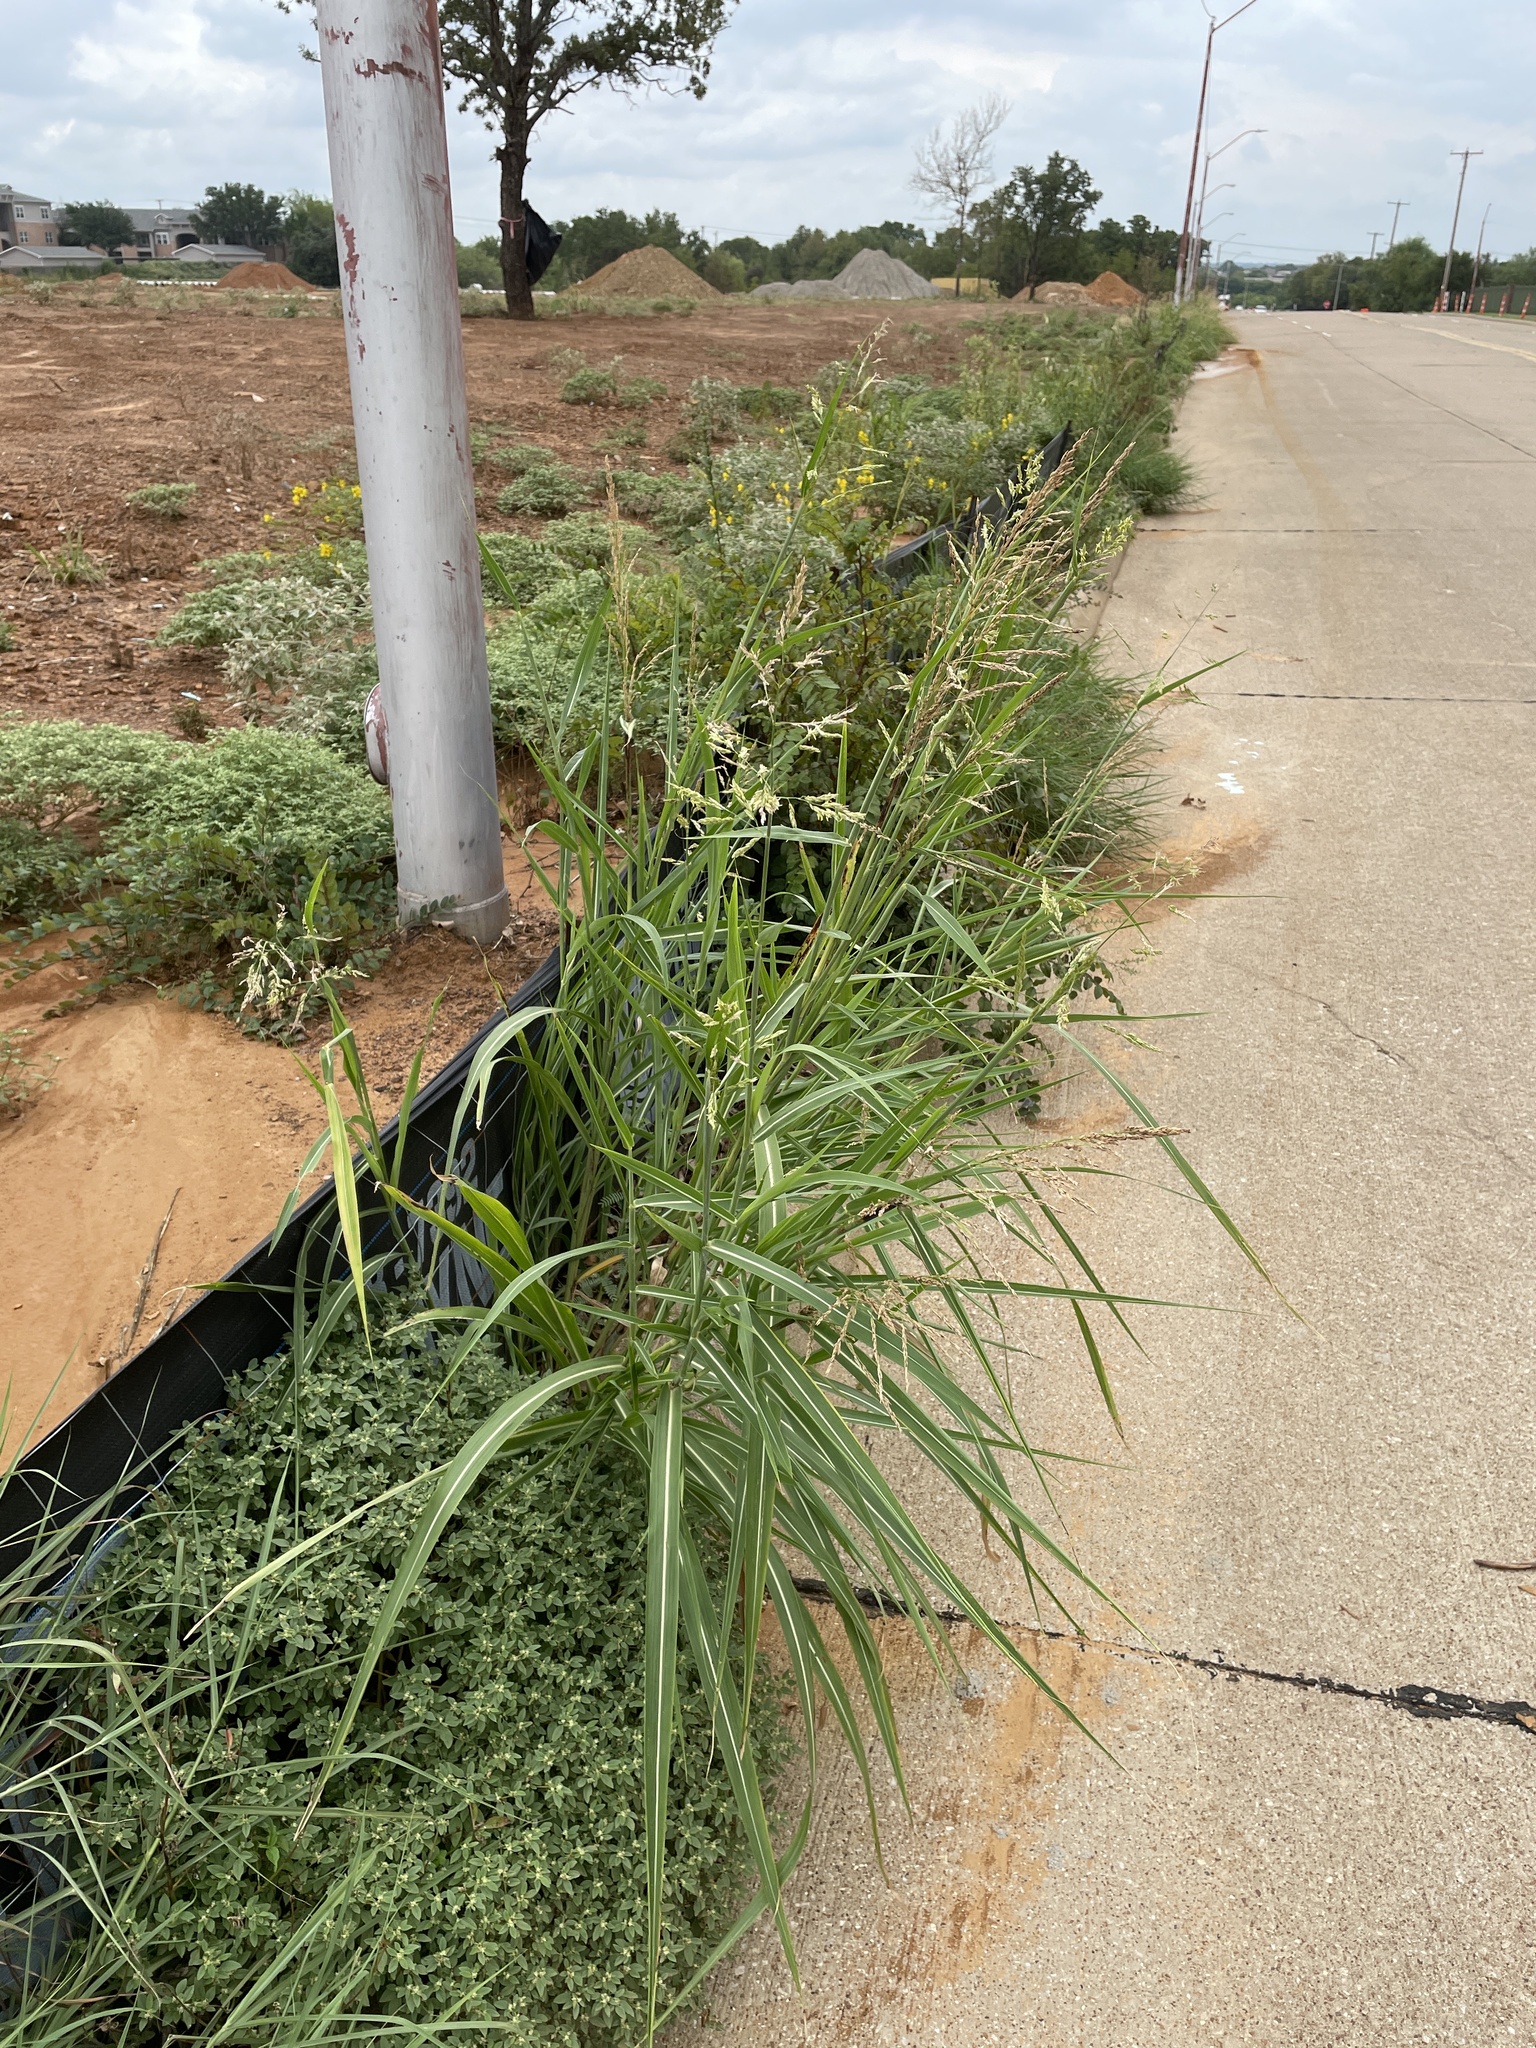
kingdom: Plantae
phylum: Tracheophyta
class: Liliopsida
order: Poales
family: Poaceae
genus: Sorghum
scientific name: Sorghum halepense
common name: Johnson-grass
